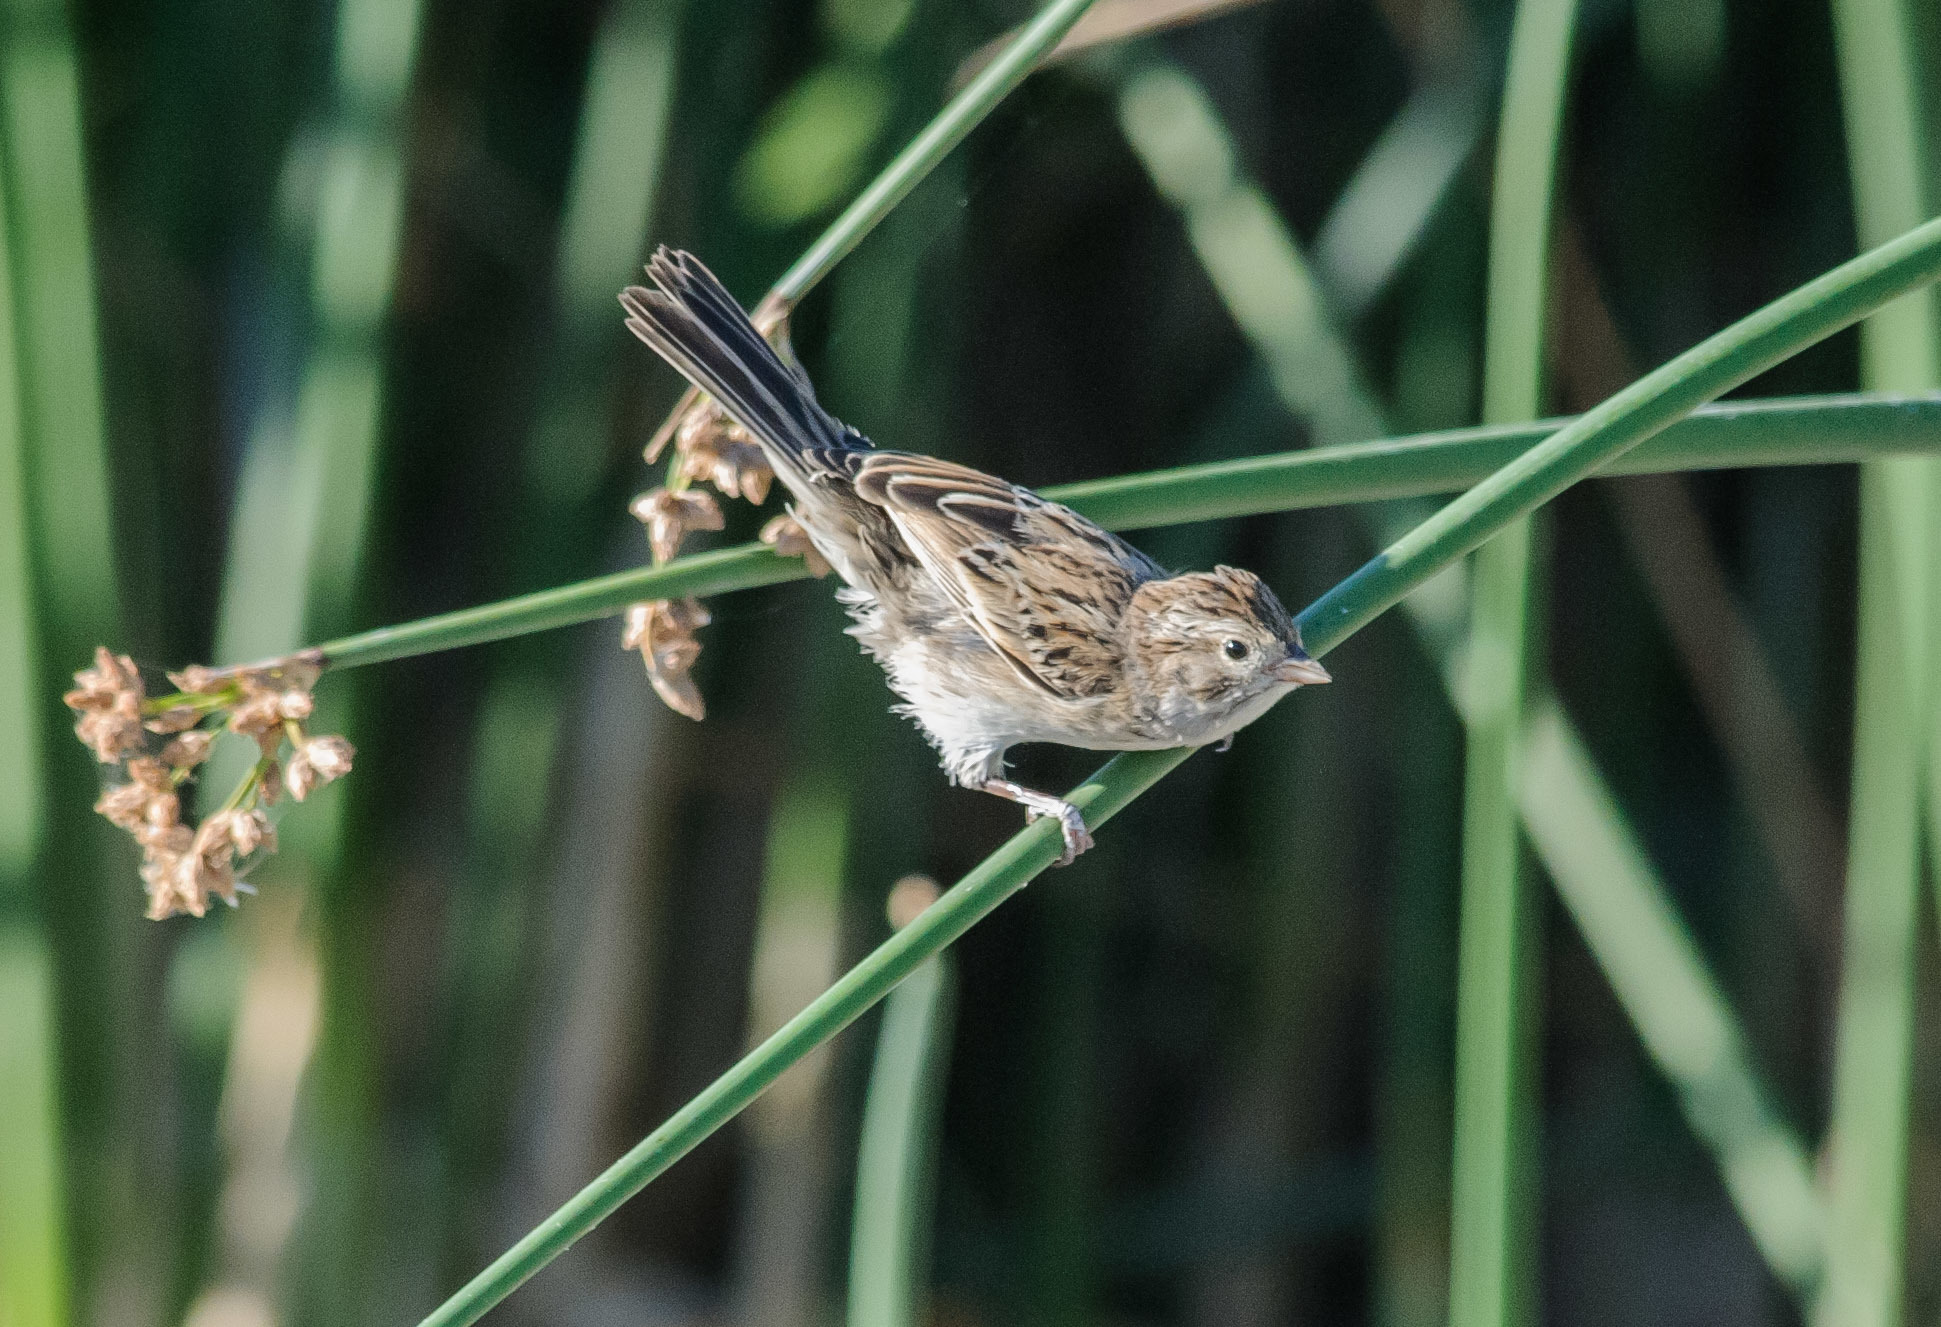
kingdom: Animalia
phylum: Chordata
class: Aves
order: Passeriformes
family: Passerellidae
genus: Spizella
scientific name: Spizella breweri
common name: Brewer's sparrow
